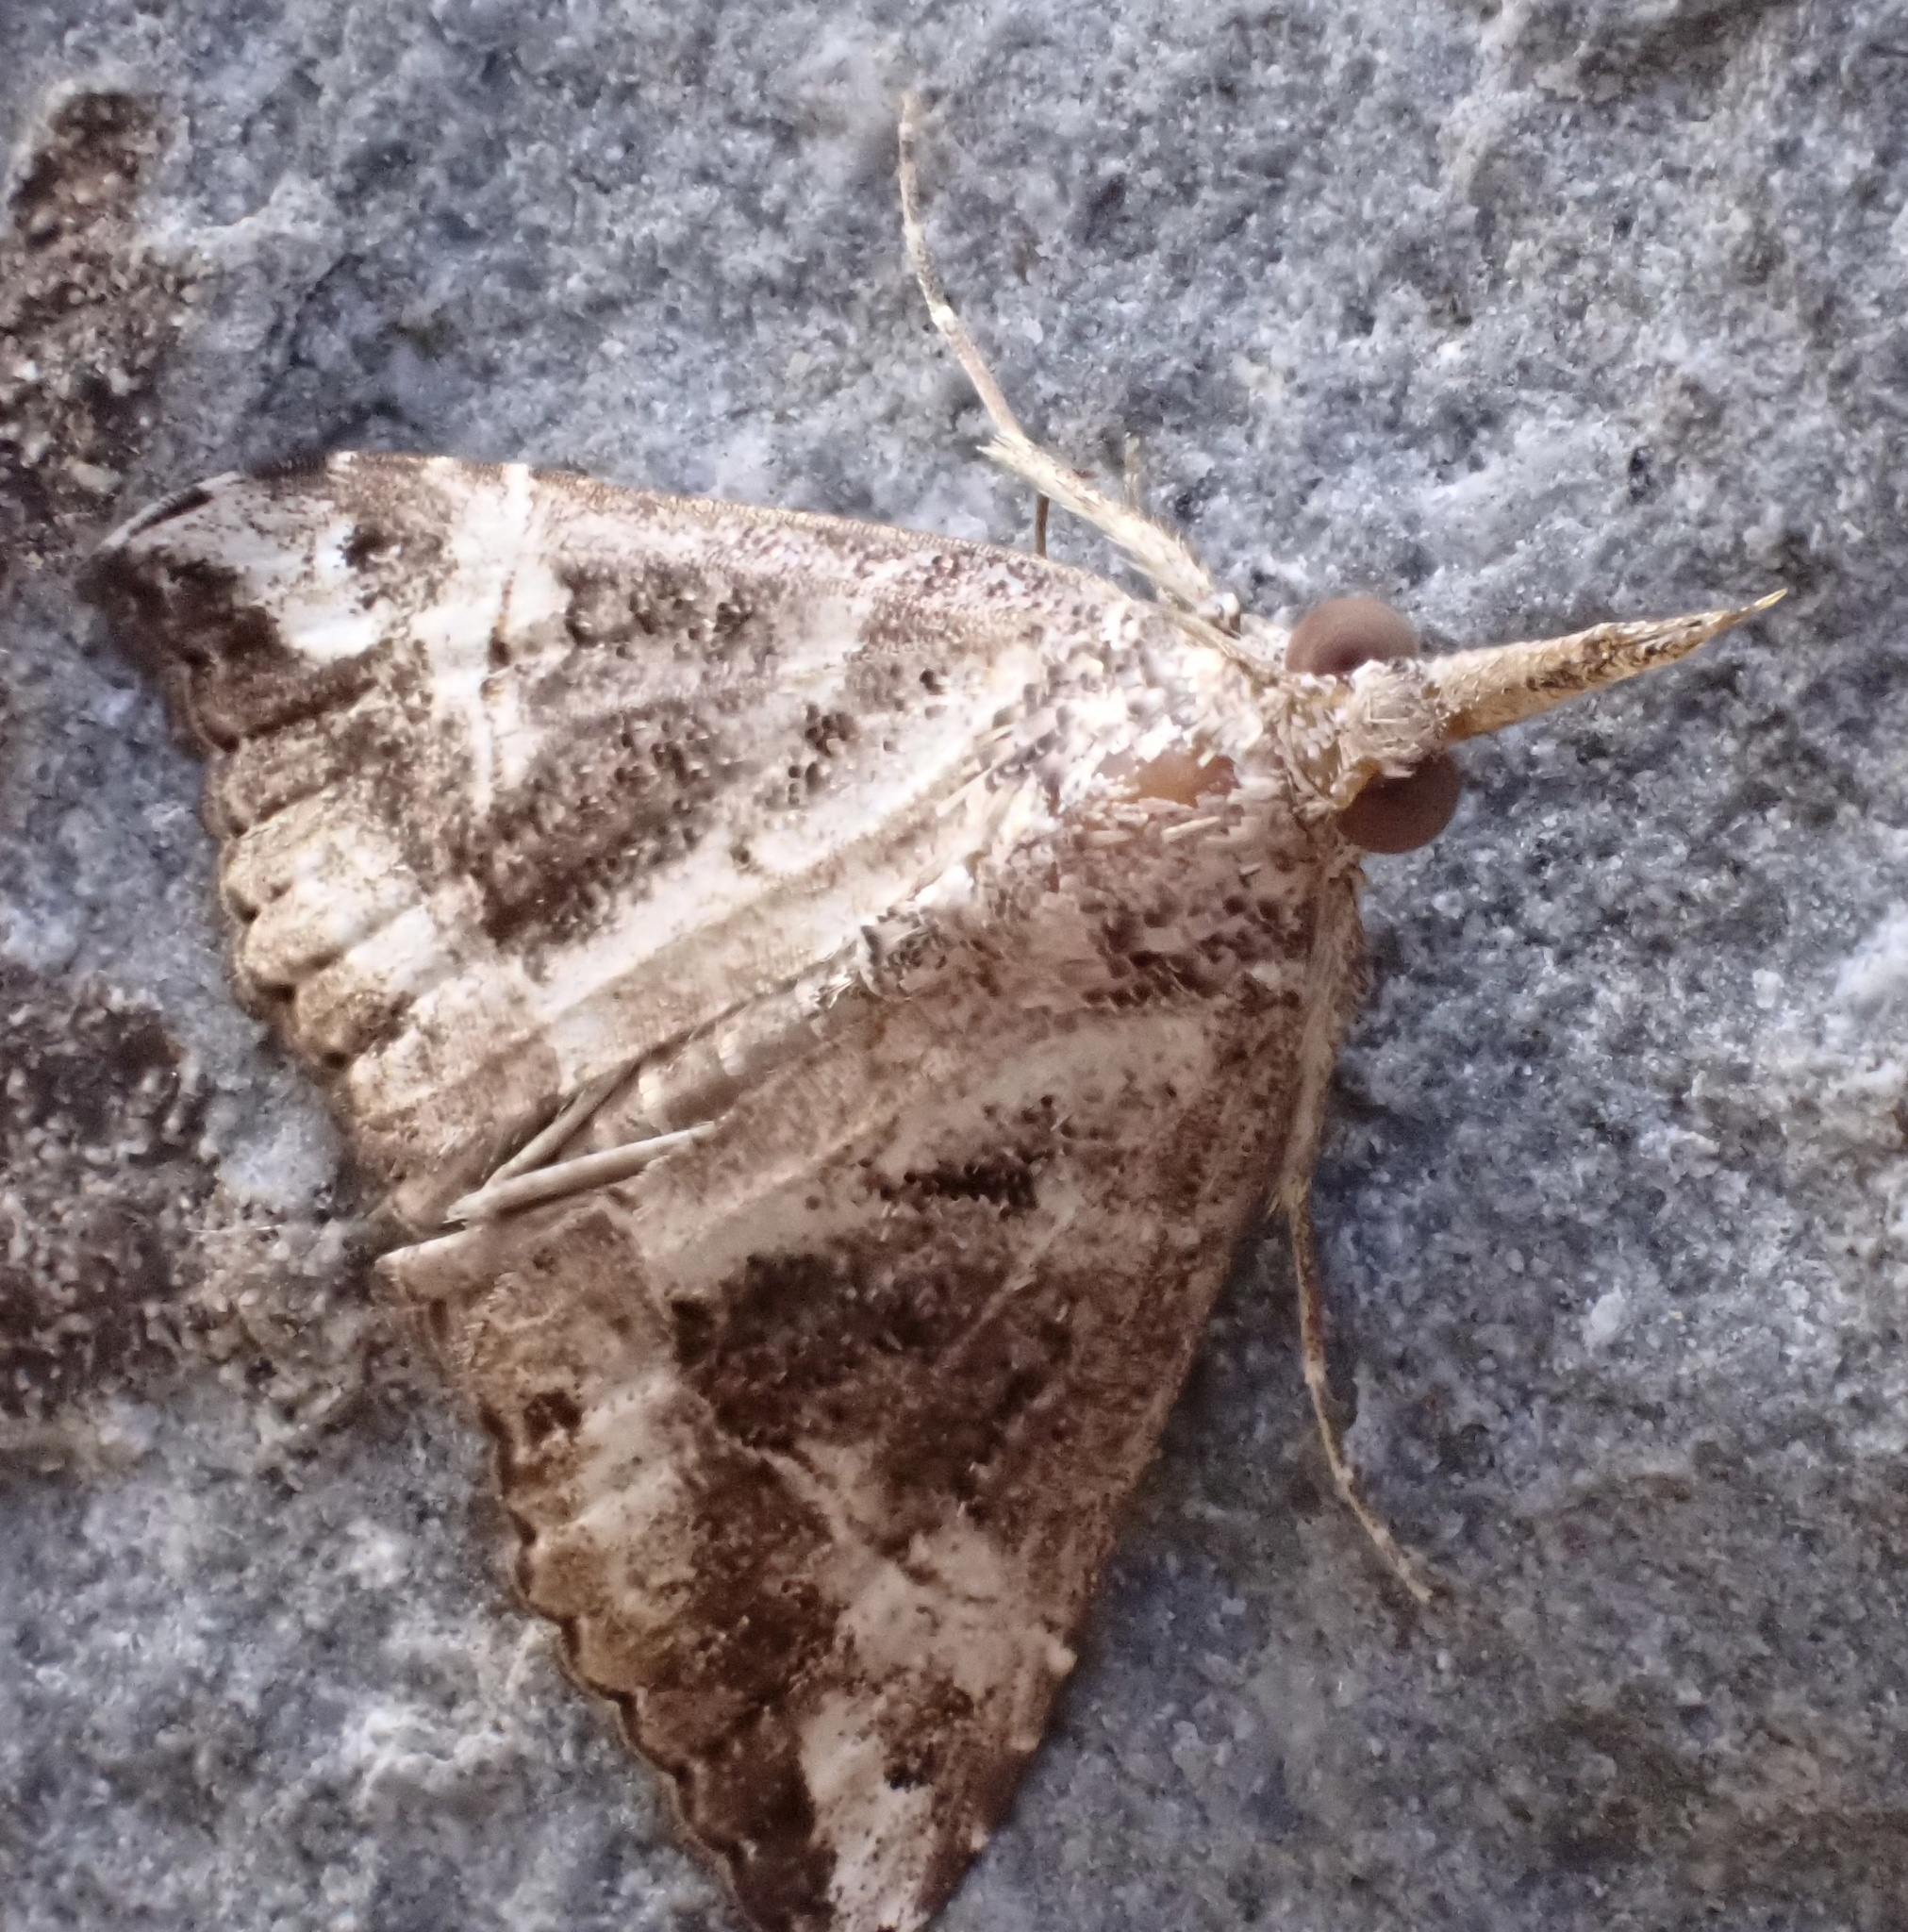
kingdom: Animalia
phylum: Arthropoda
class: Insecta
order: Lepidoptera
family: Erebidae
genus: Hypena
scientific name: Hypena commixtalis
